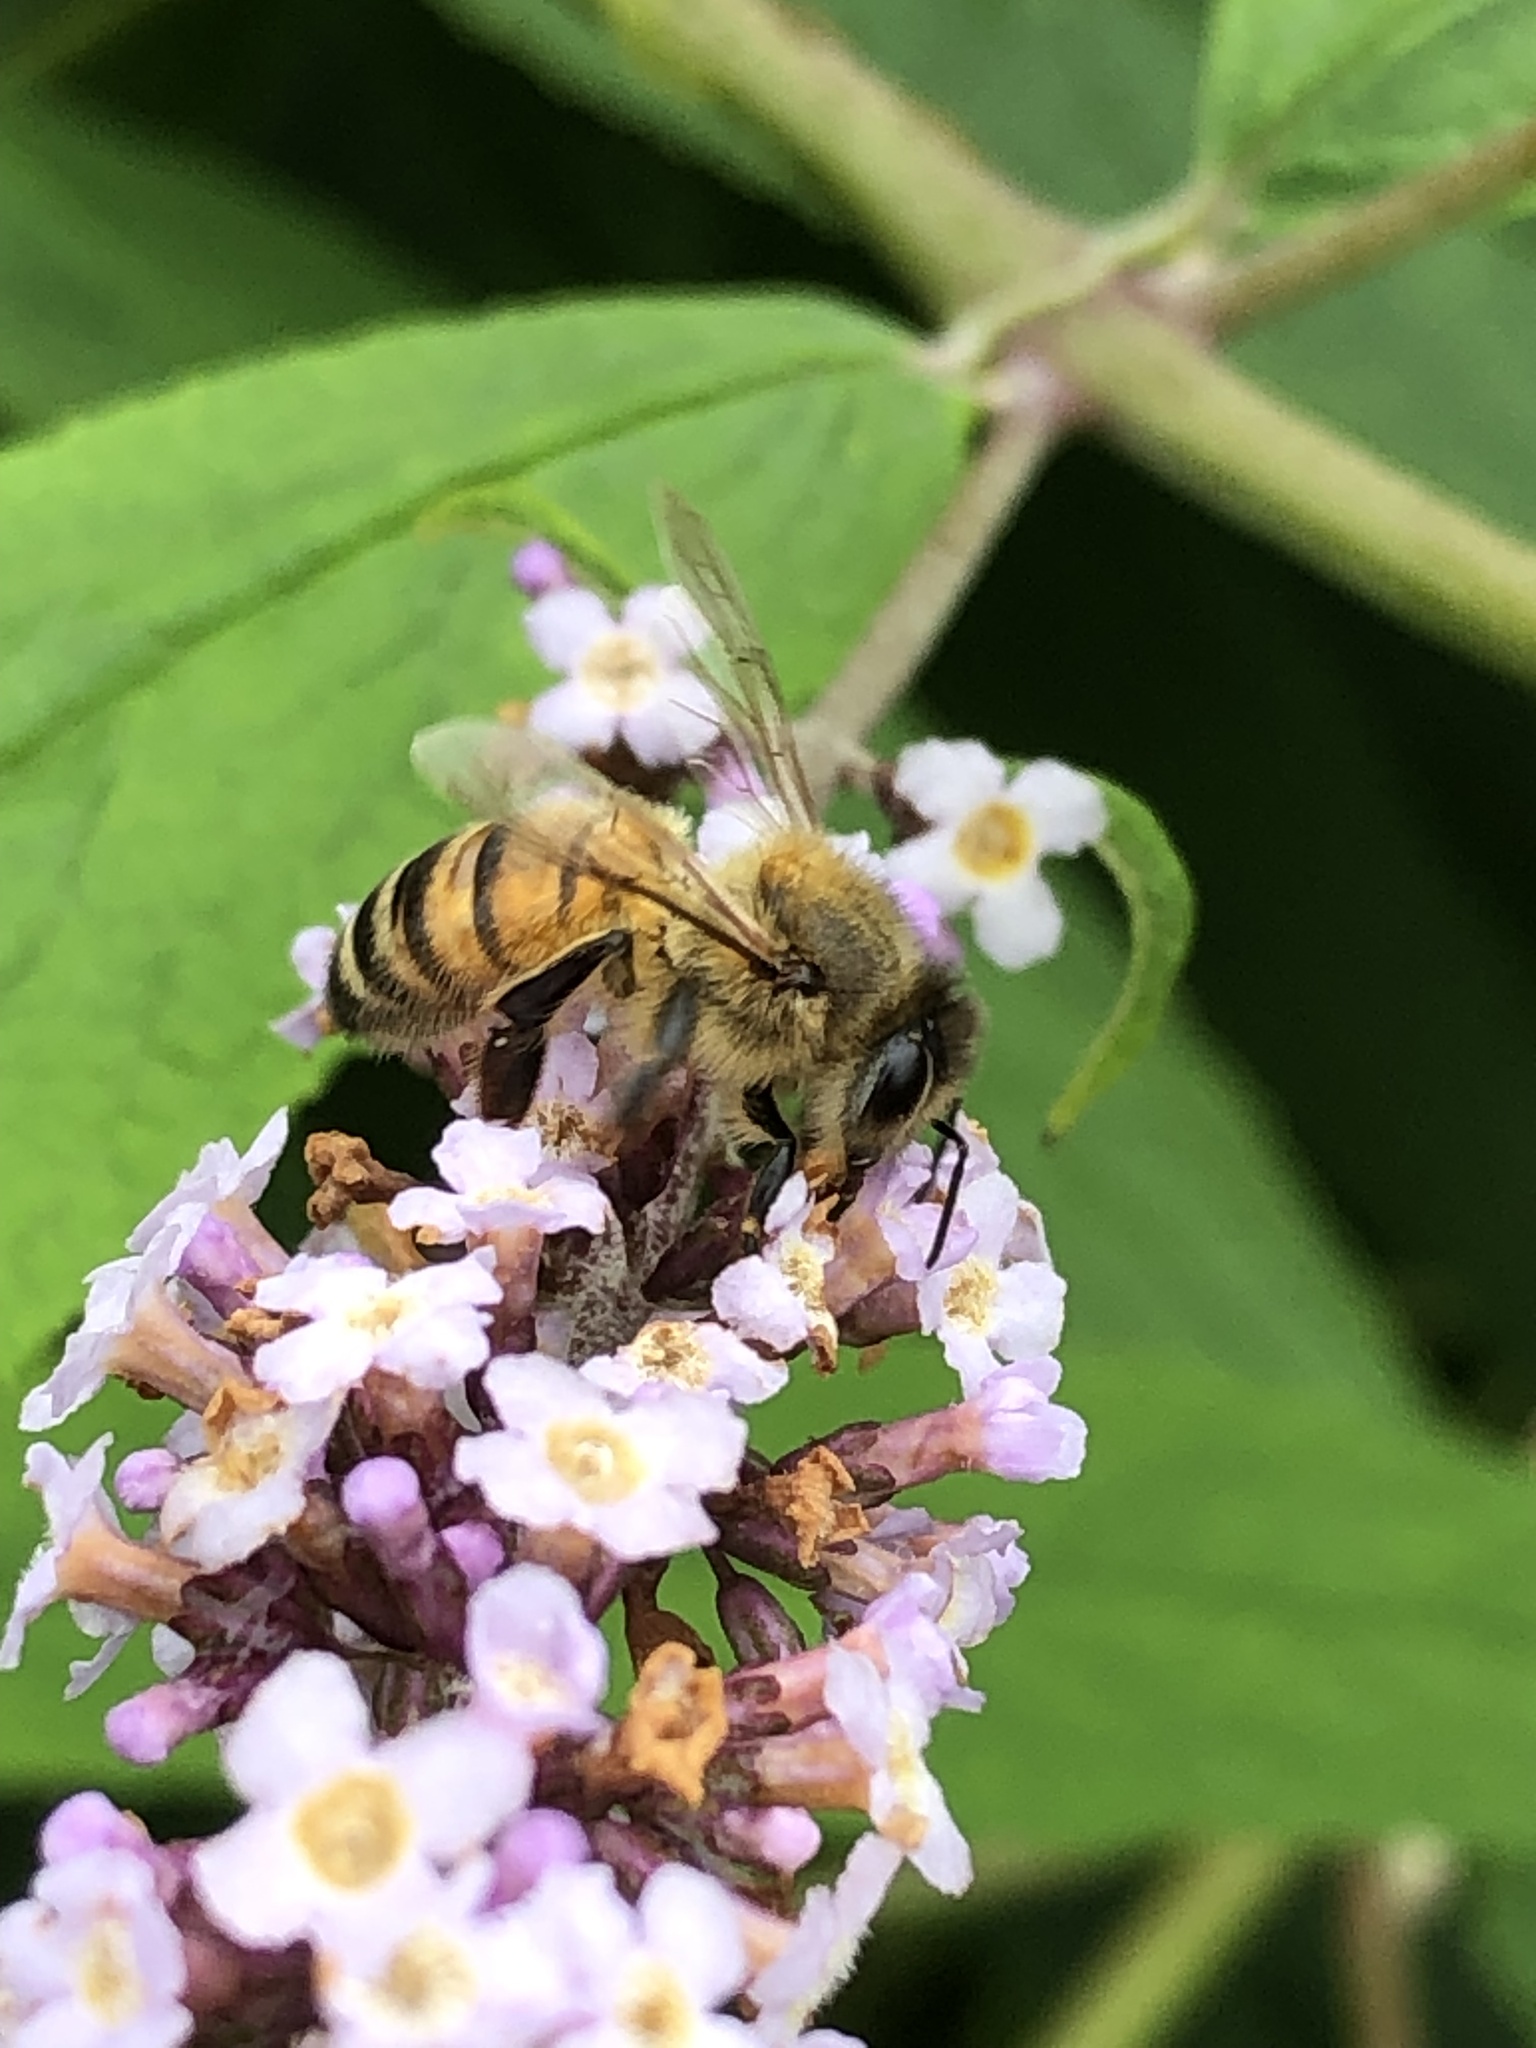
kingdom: Animalia
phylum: Arthropoda
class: Insecta
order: Hymenoptera
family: Apidae
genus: Apis
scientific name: Apis mellifera
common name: Honey bee
